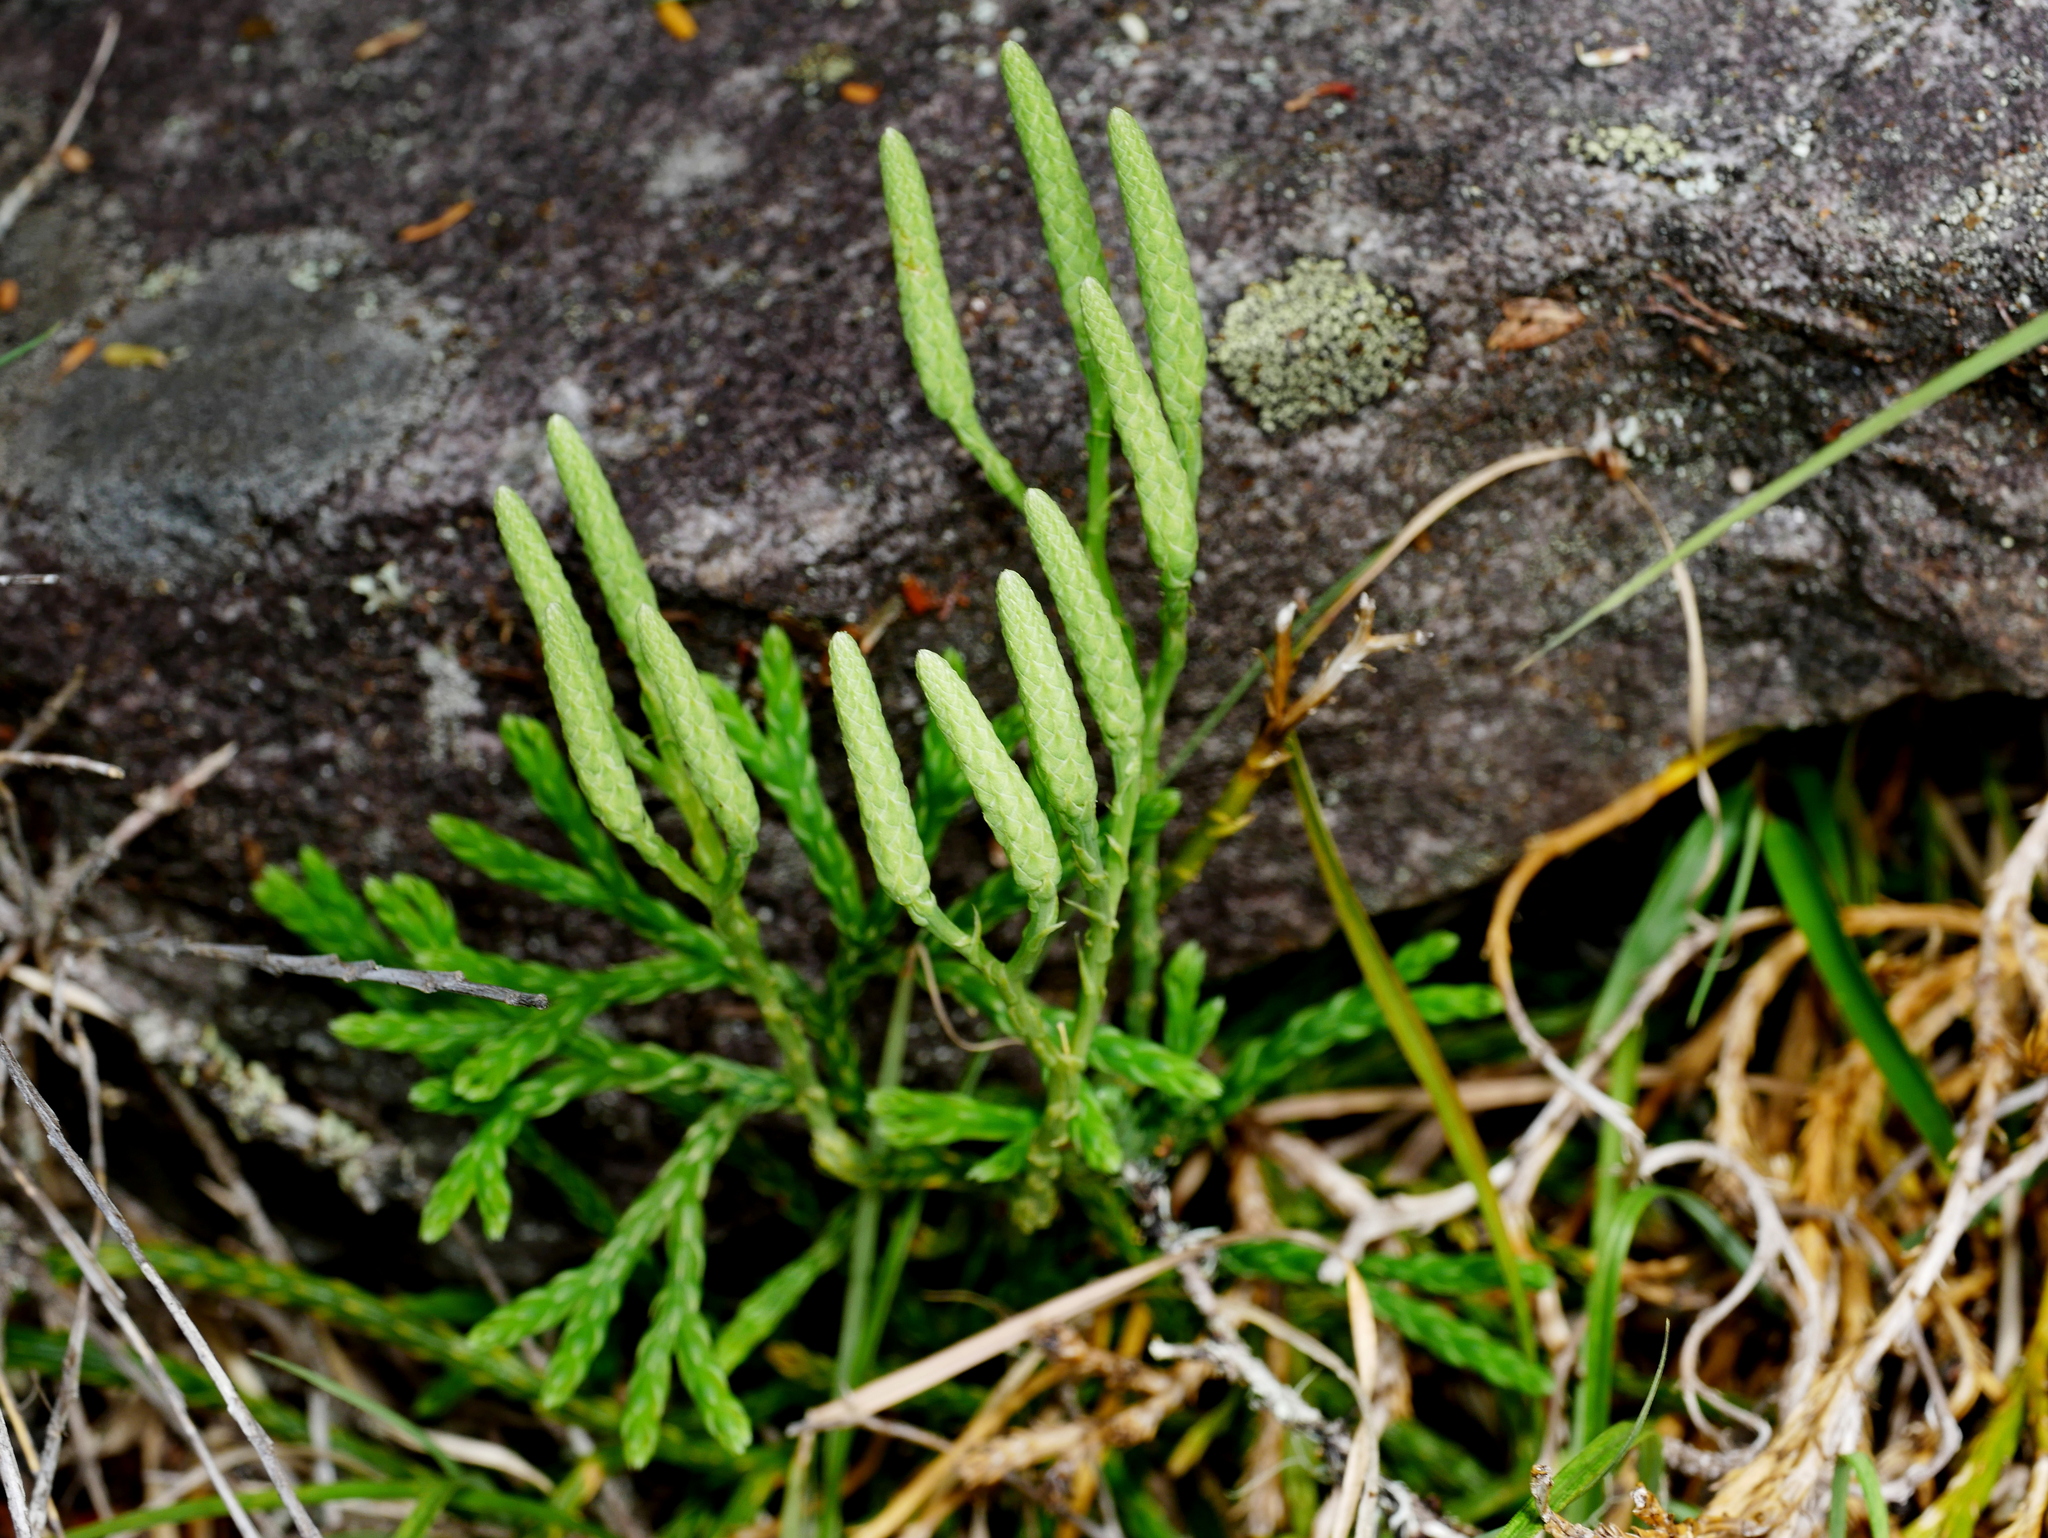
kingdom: Plantae
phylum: Tracheophyta
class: Lycopodiopsida
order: Lycopodiales
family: Lycopodiaceae
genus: Diphasiastrum
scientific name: Diphasiastrum yueshanense
